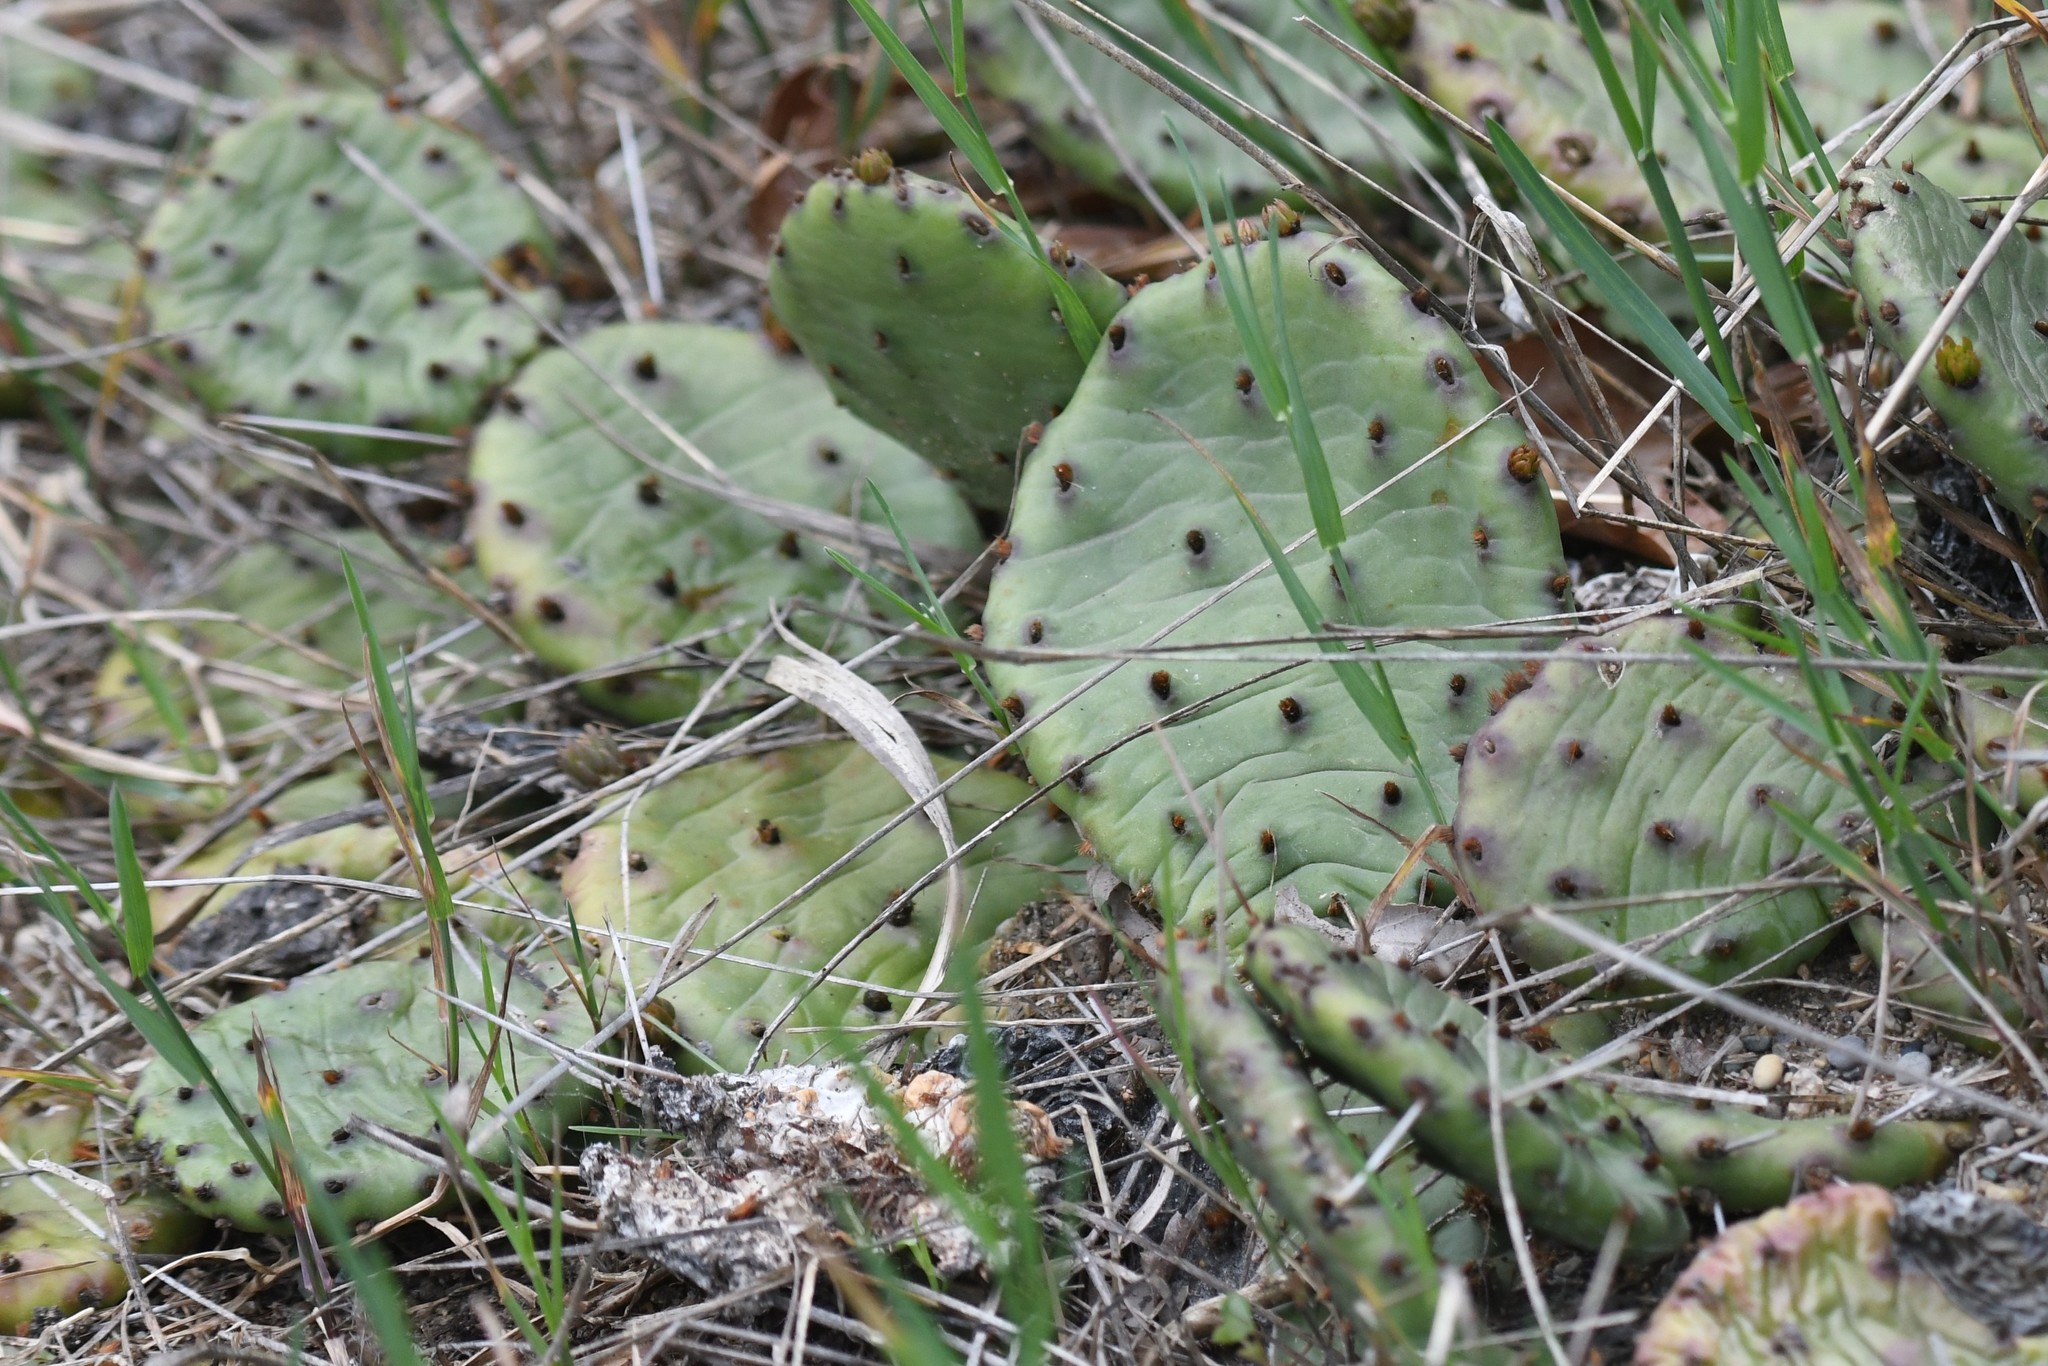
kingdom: Plantae
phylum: Tracheophyta
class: Magnoliopsida
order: Caryophyllales
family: Cactaceae
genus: Opuntia
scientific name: Opuntia humifusa
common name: Eastern prickly-pear
